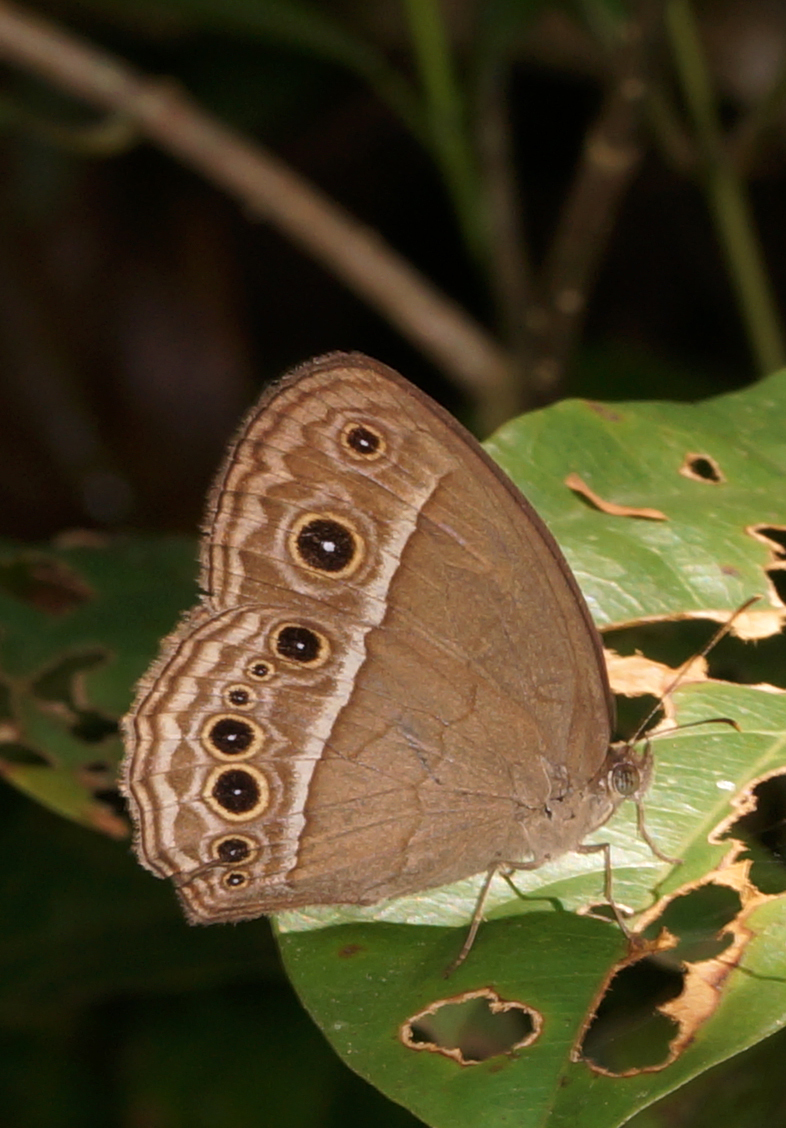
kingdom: Animalia
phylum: Arthropoda
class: Insecta
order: Lepidoptera
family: Nymphalidae
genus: Mycalesis
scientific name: Mycalesis perseoides
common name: Burmese bushbrown
